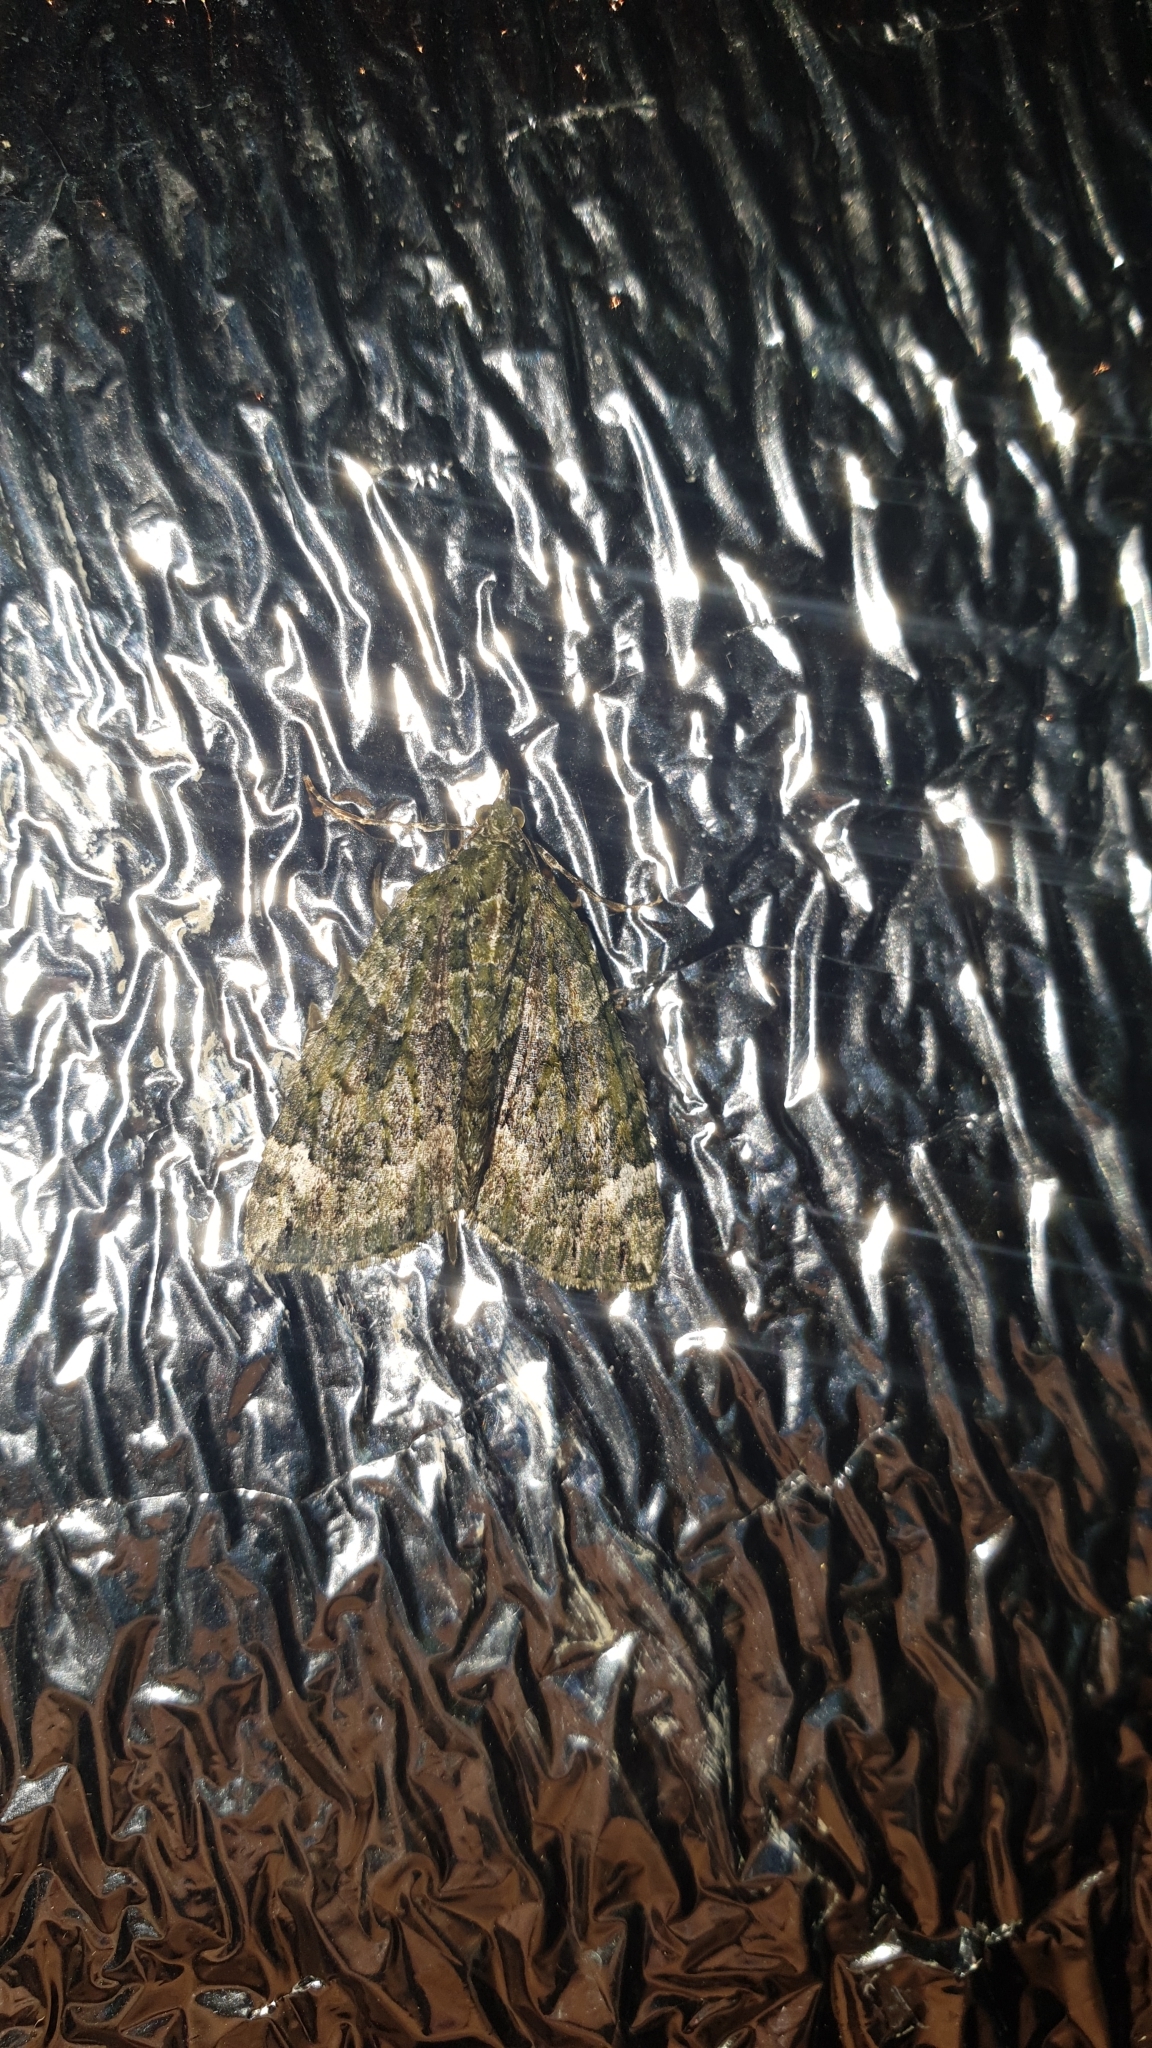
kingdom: Animalia
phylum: Arthropoda
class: Insecta
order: Lepidoptera
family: Geometridae
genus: Chloroclysta
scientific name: Chloroclysta siterata
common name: Red-green carpet
